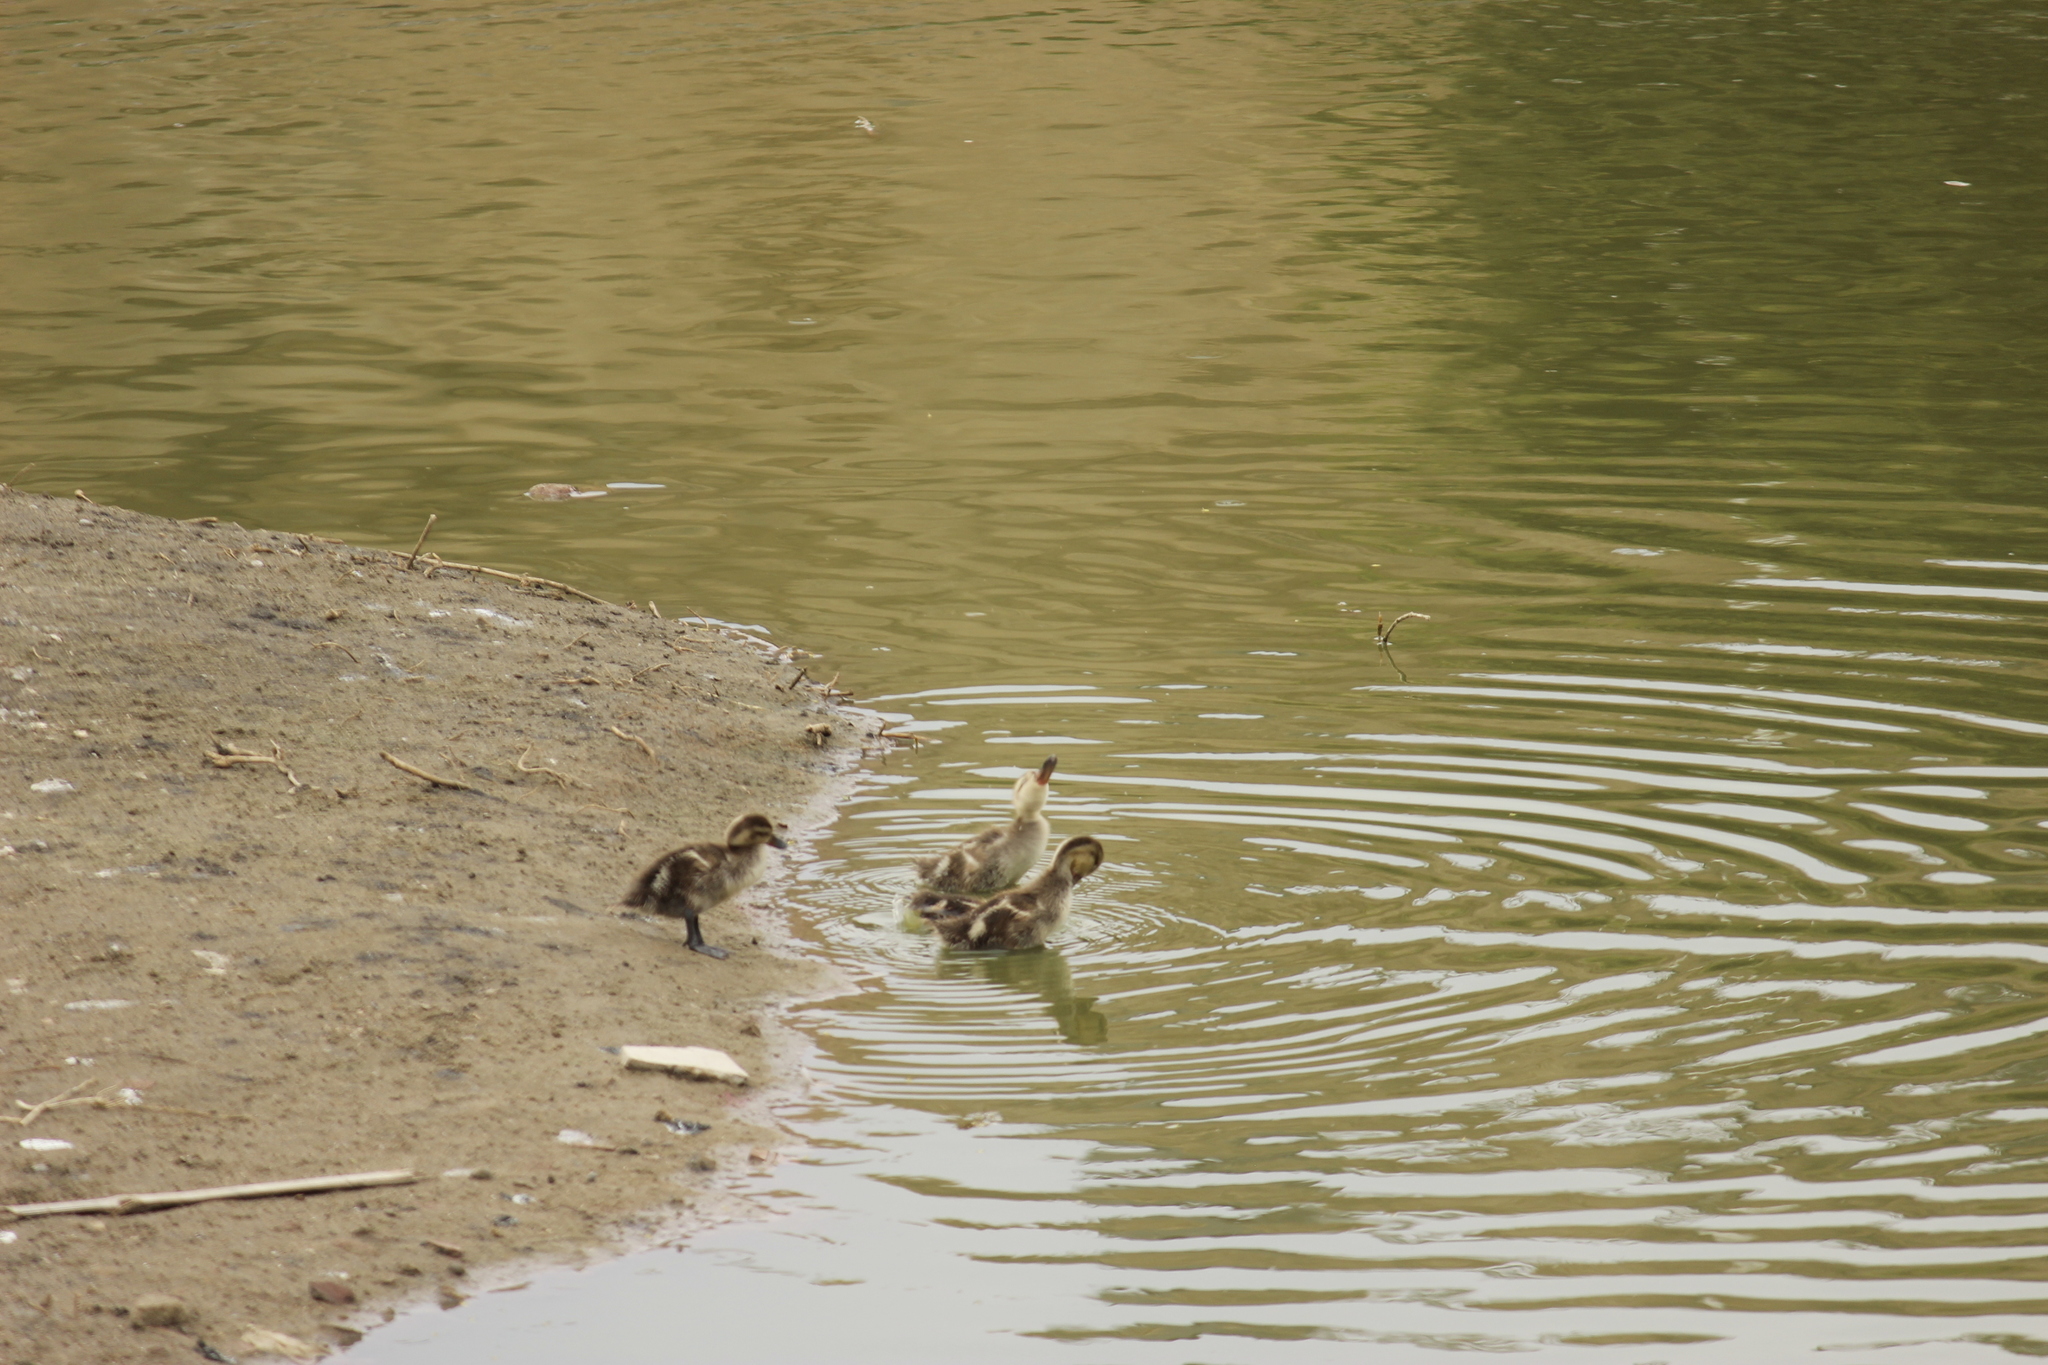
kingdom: Animalia
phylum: Chordata
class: Aves
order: Anseriformes
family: Anatidae
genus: Anas
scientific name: Anas bahamensis
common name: White-cheeked pintail
